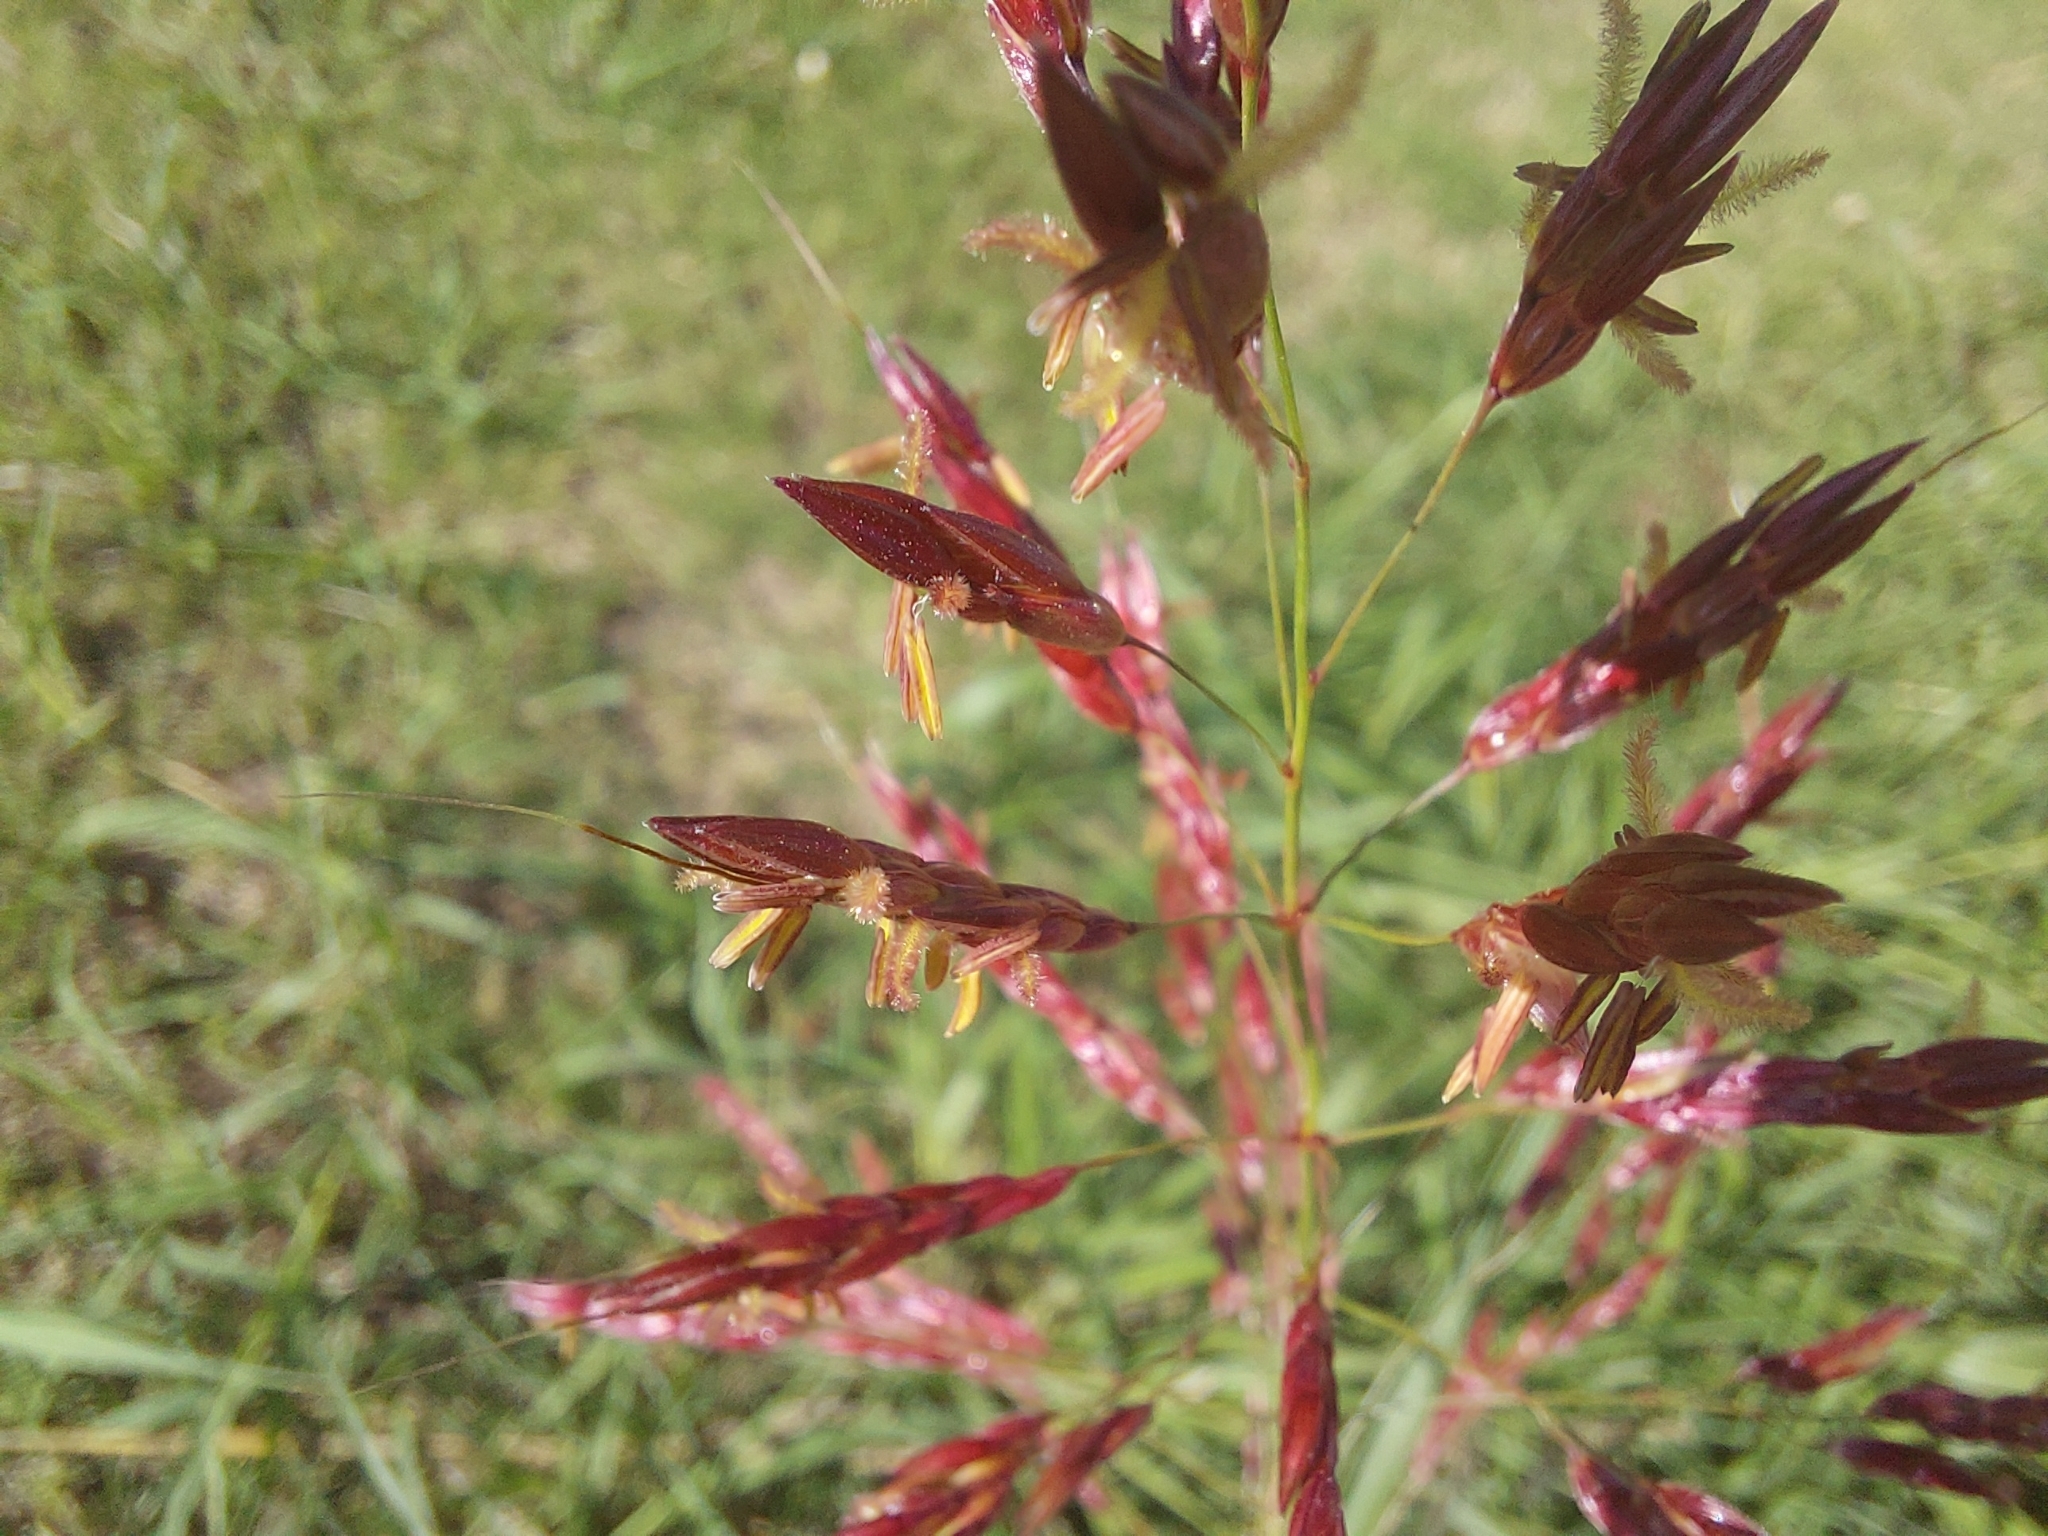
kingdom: Plantae
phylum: Tracheophyta
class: Liliopsida
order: Poales
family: Poaceae
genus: Sorghum
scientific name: Sorghum halepense
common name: Johnson-grass
